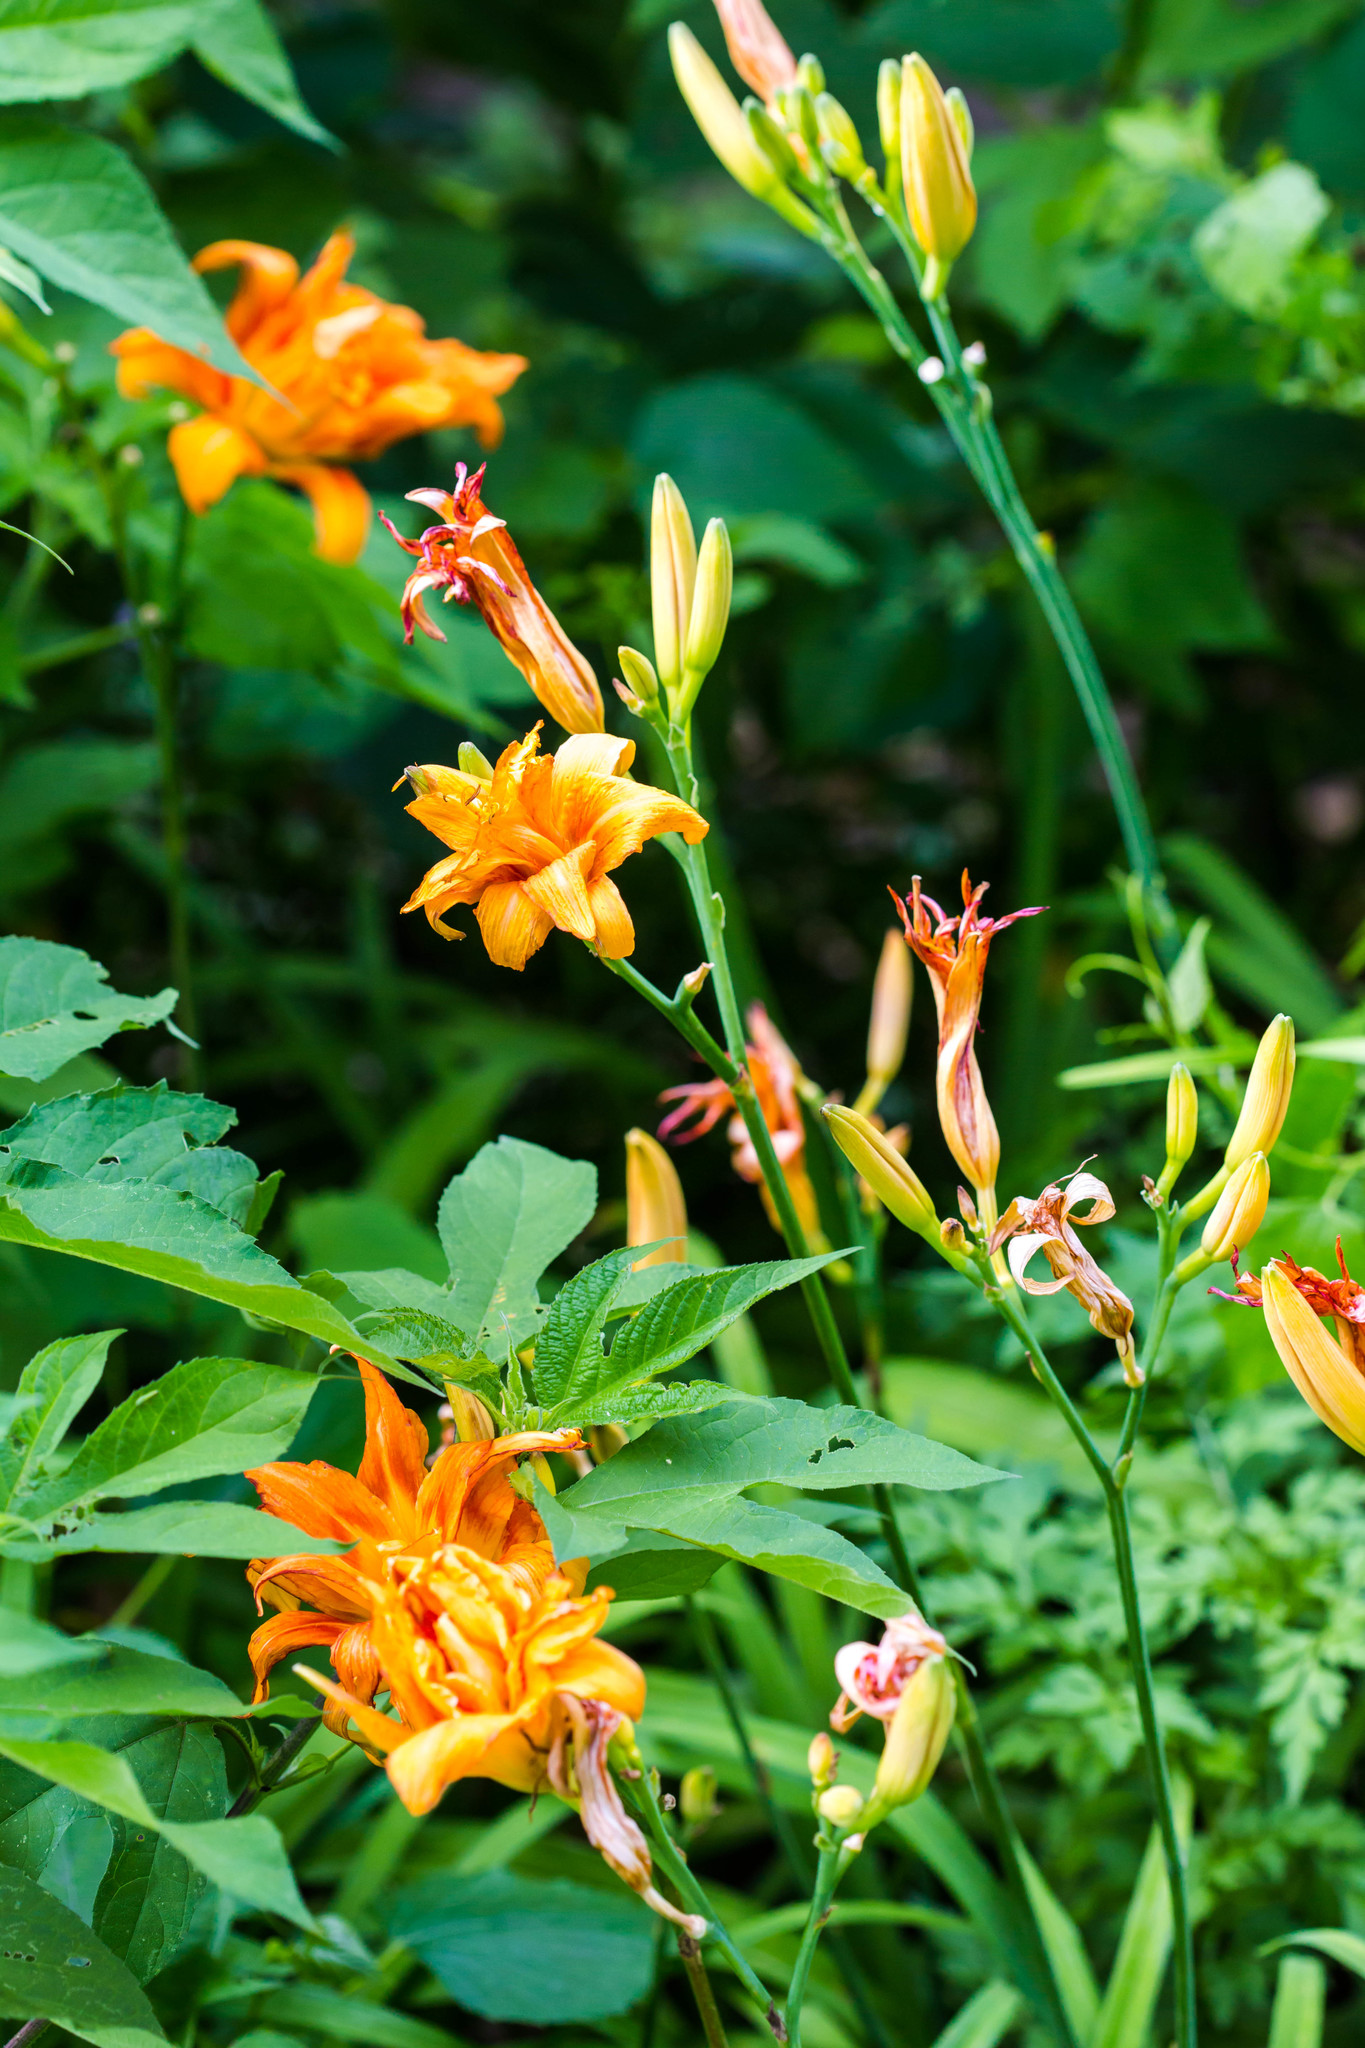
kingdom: Plantae
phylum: Tracheophyta
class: Liliopsida
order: Asparagales
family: Asphodelaceae
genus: Hemerocallis
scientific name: Hemerocallis fulva
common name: Orange day-lily
